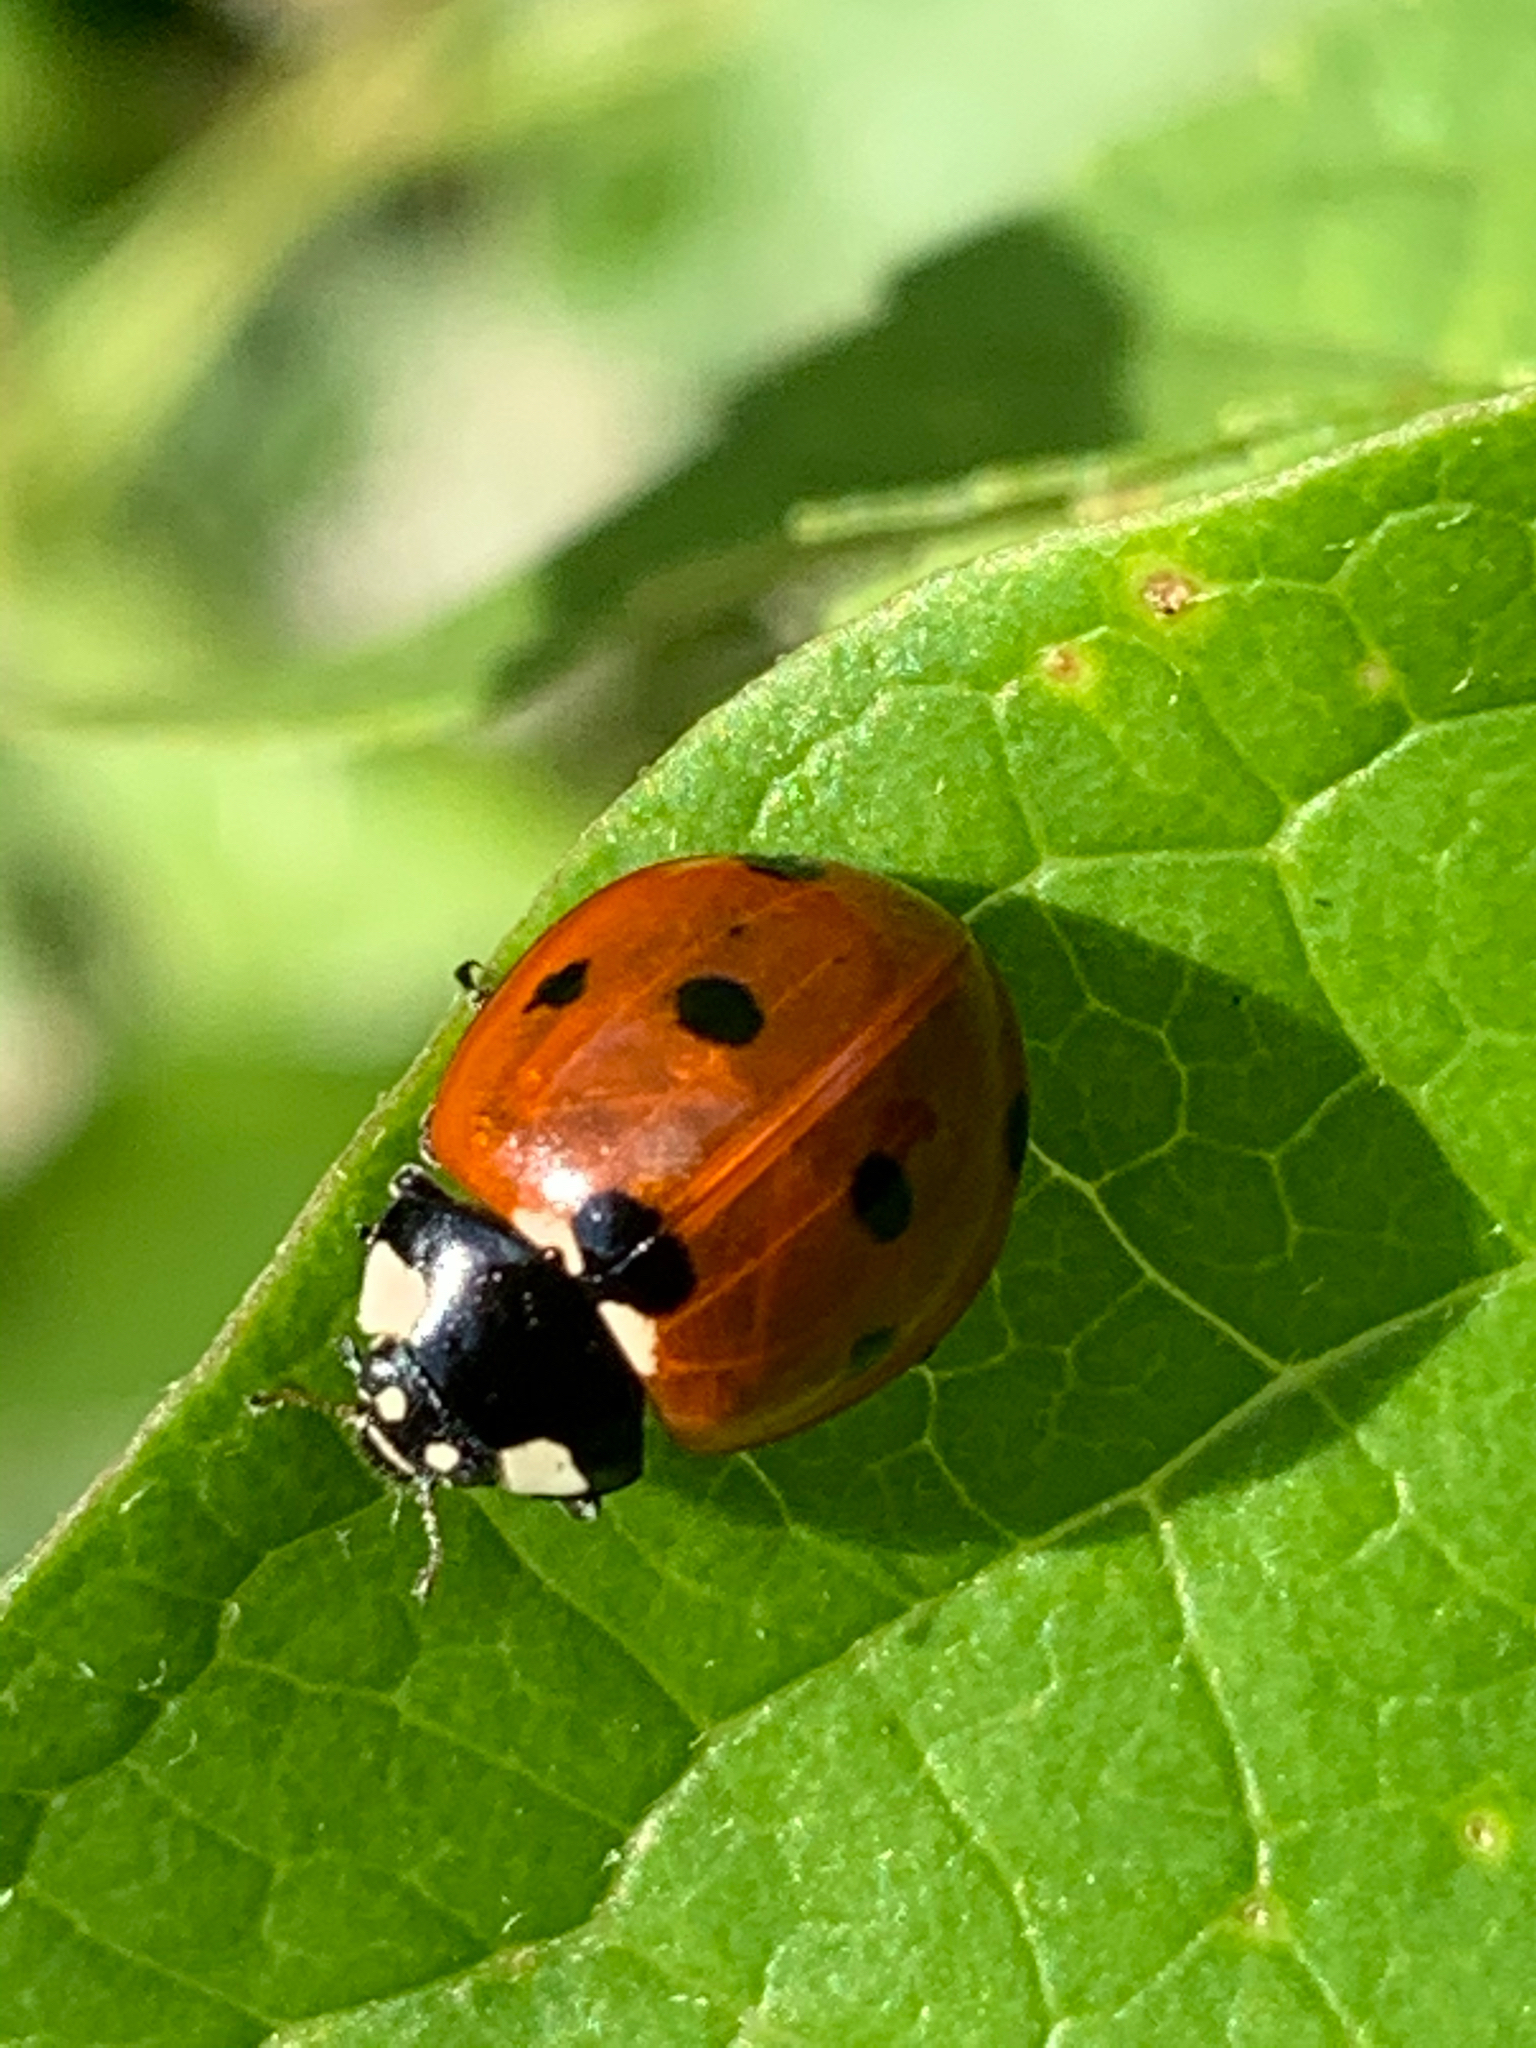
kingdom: Animalia
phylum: Arthropoda
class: Insecta
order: Coleoptera
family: Coccinellidae
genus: Coccinella
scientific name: Coccinella septempunctata
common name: Sevenspotted lady beetle
